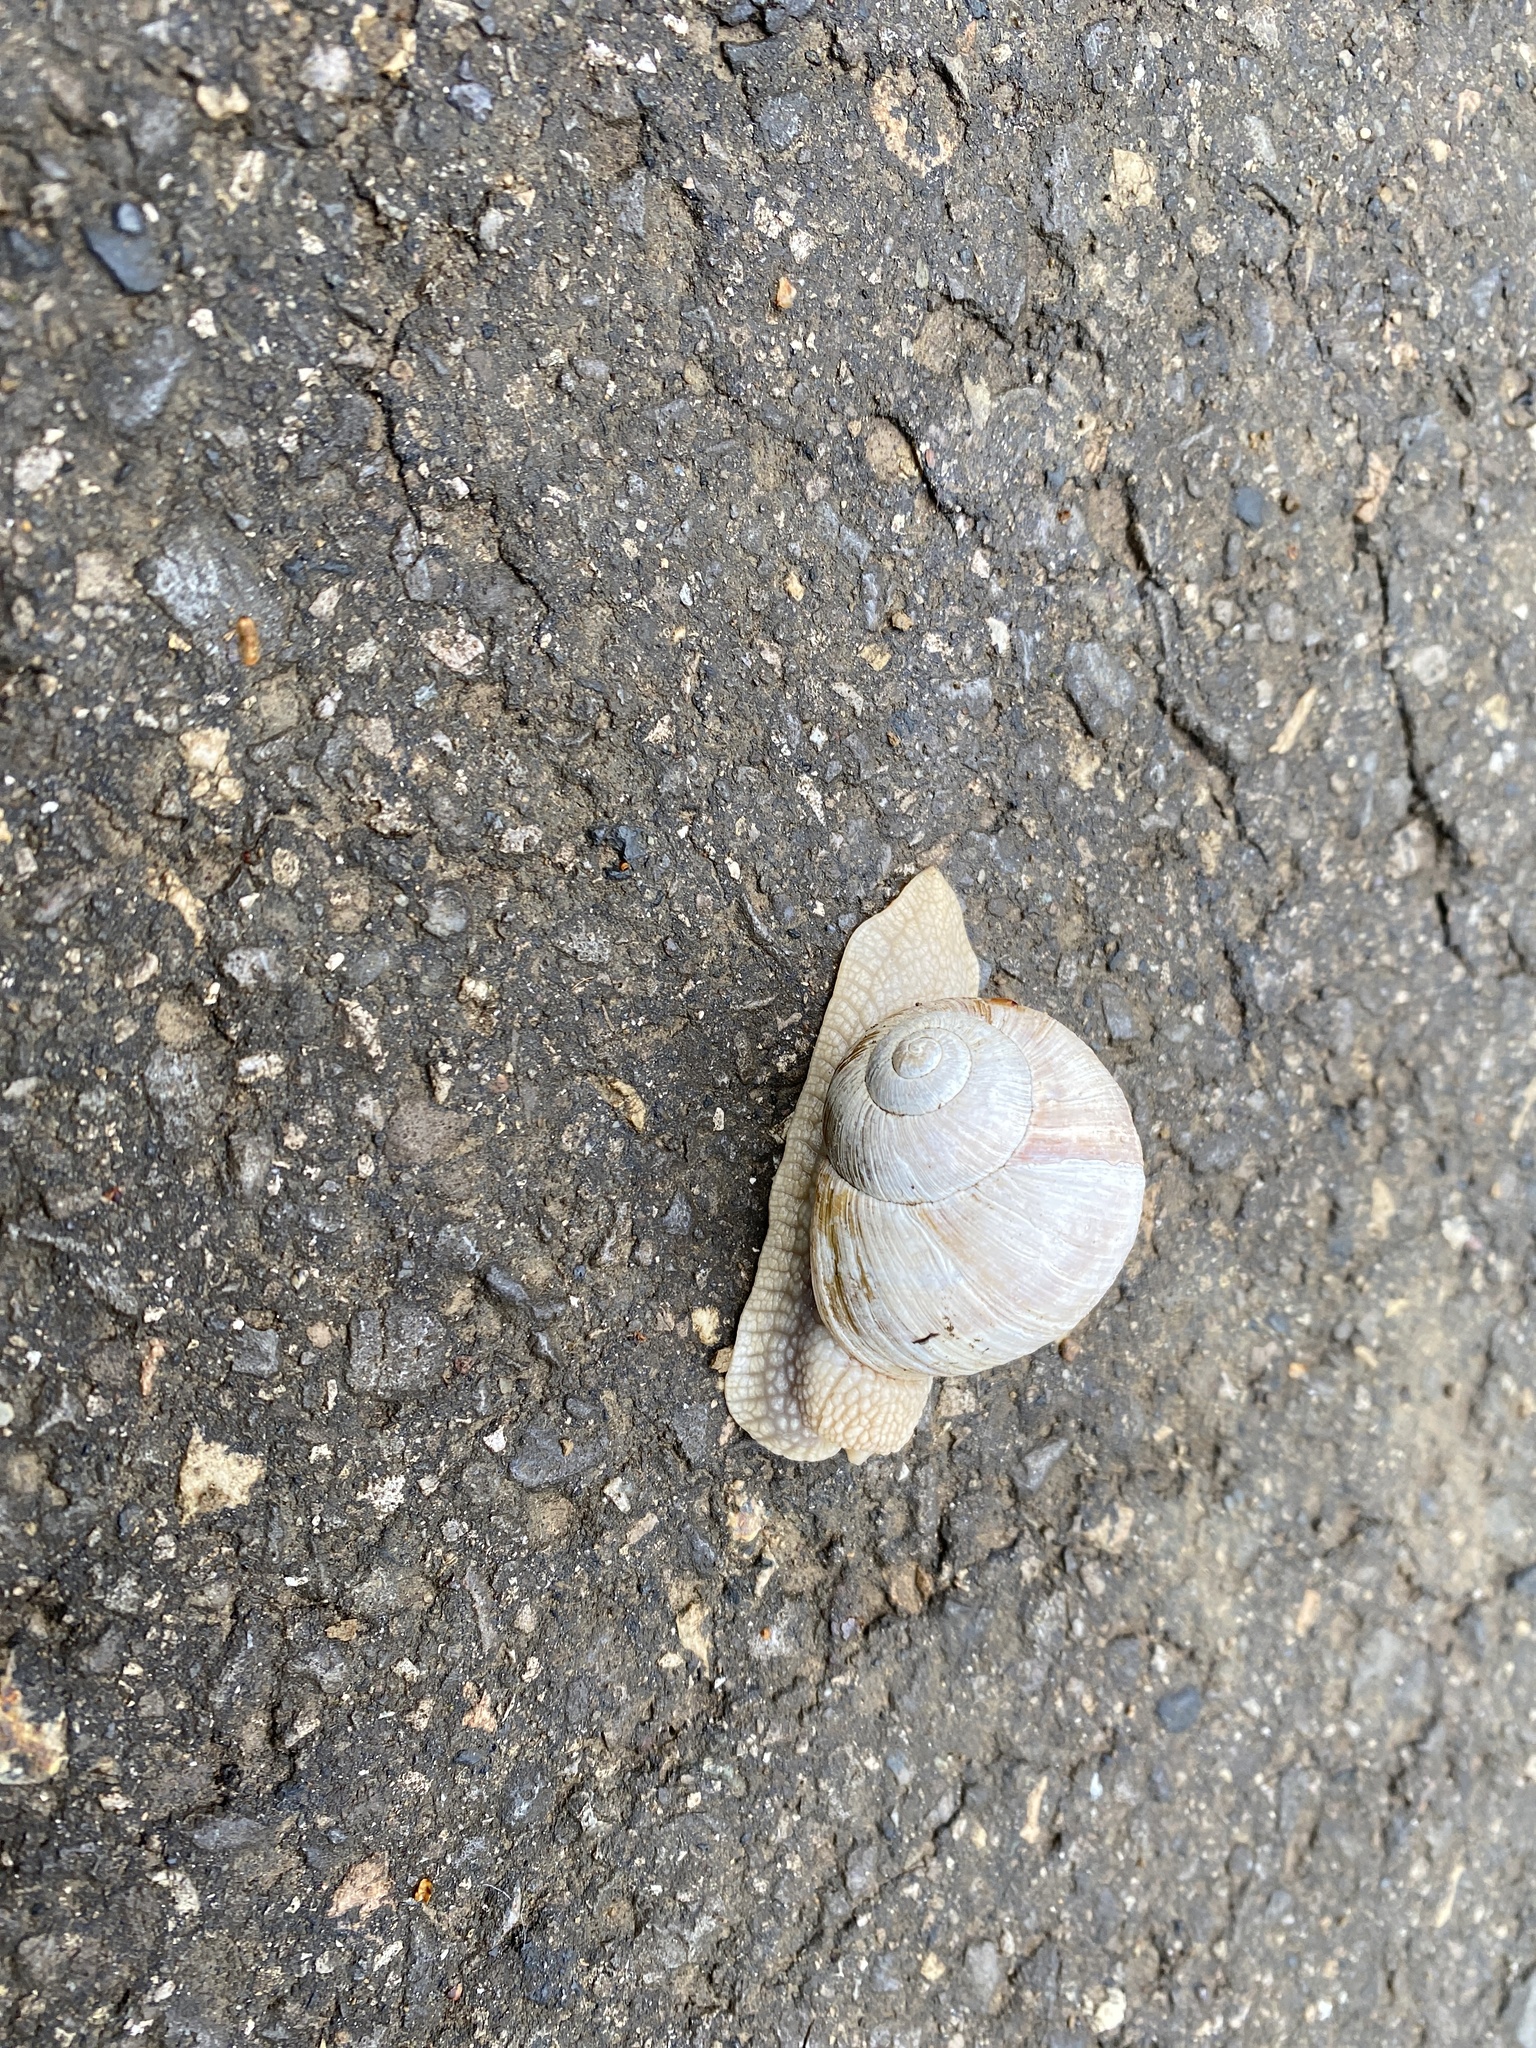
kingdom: Animalia
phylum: Mollusca
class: Gastropoda
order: Stylommatophora
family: Helicidae
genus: Helix
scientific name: Helix pomatia
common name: Roman snail
